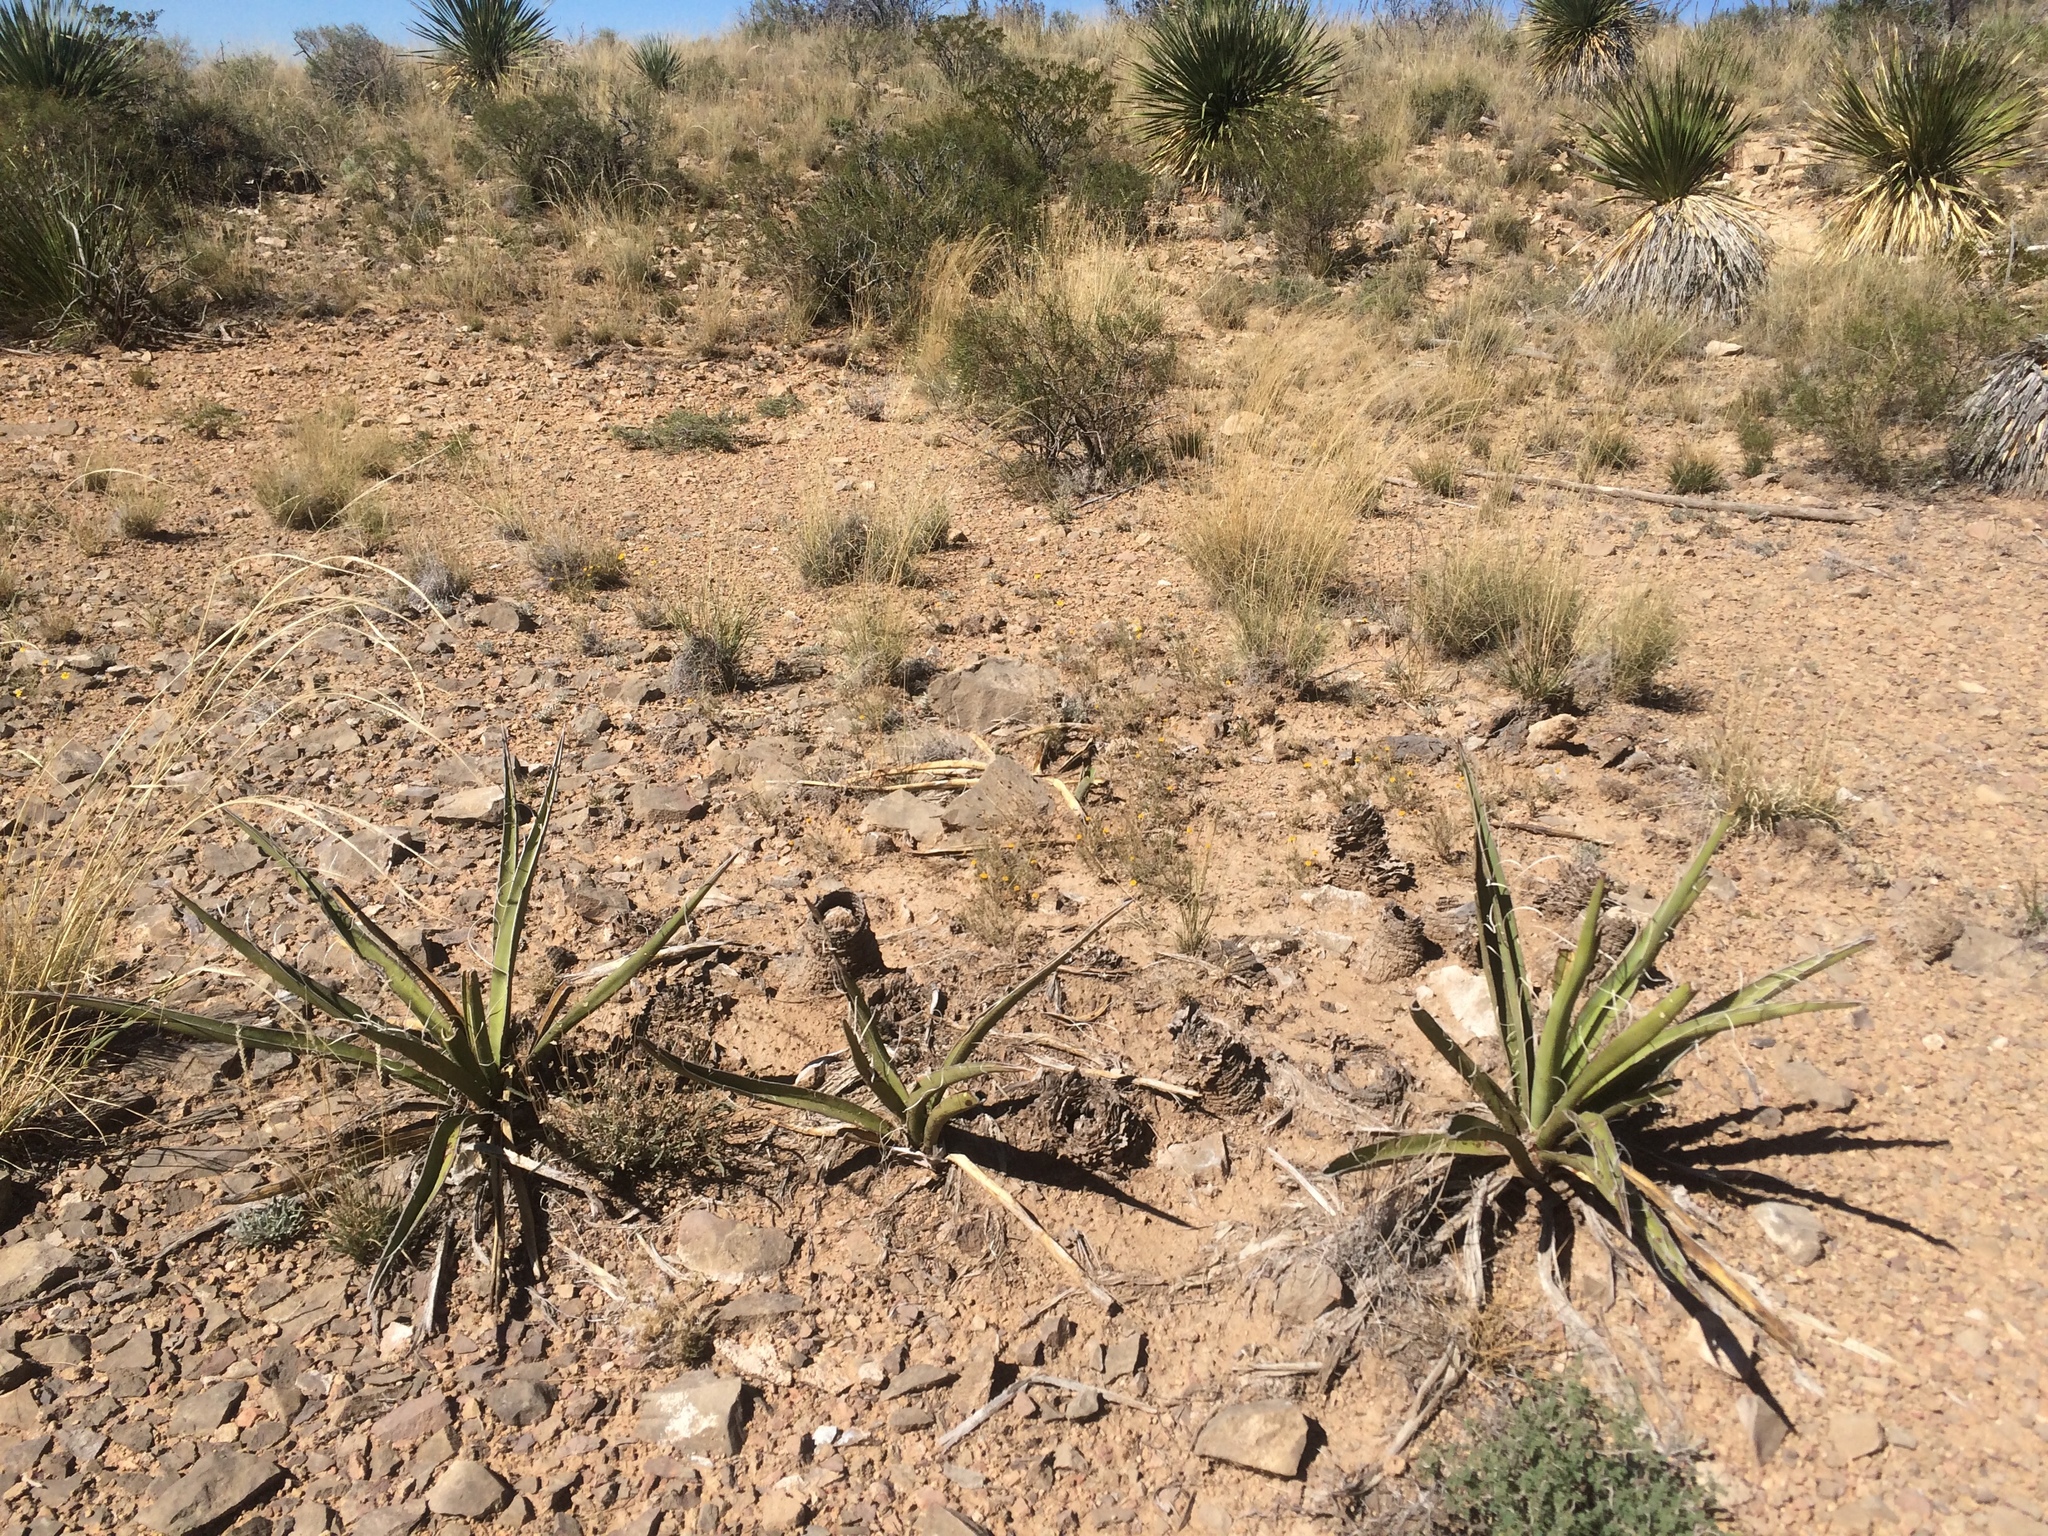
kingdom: Plantae
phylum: Tracheophyta
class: Liliopsida
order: Asparagales
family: Asparagaceae
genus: Yucca
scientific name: Yucca baccata
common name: Banana yucca
